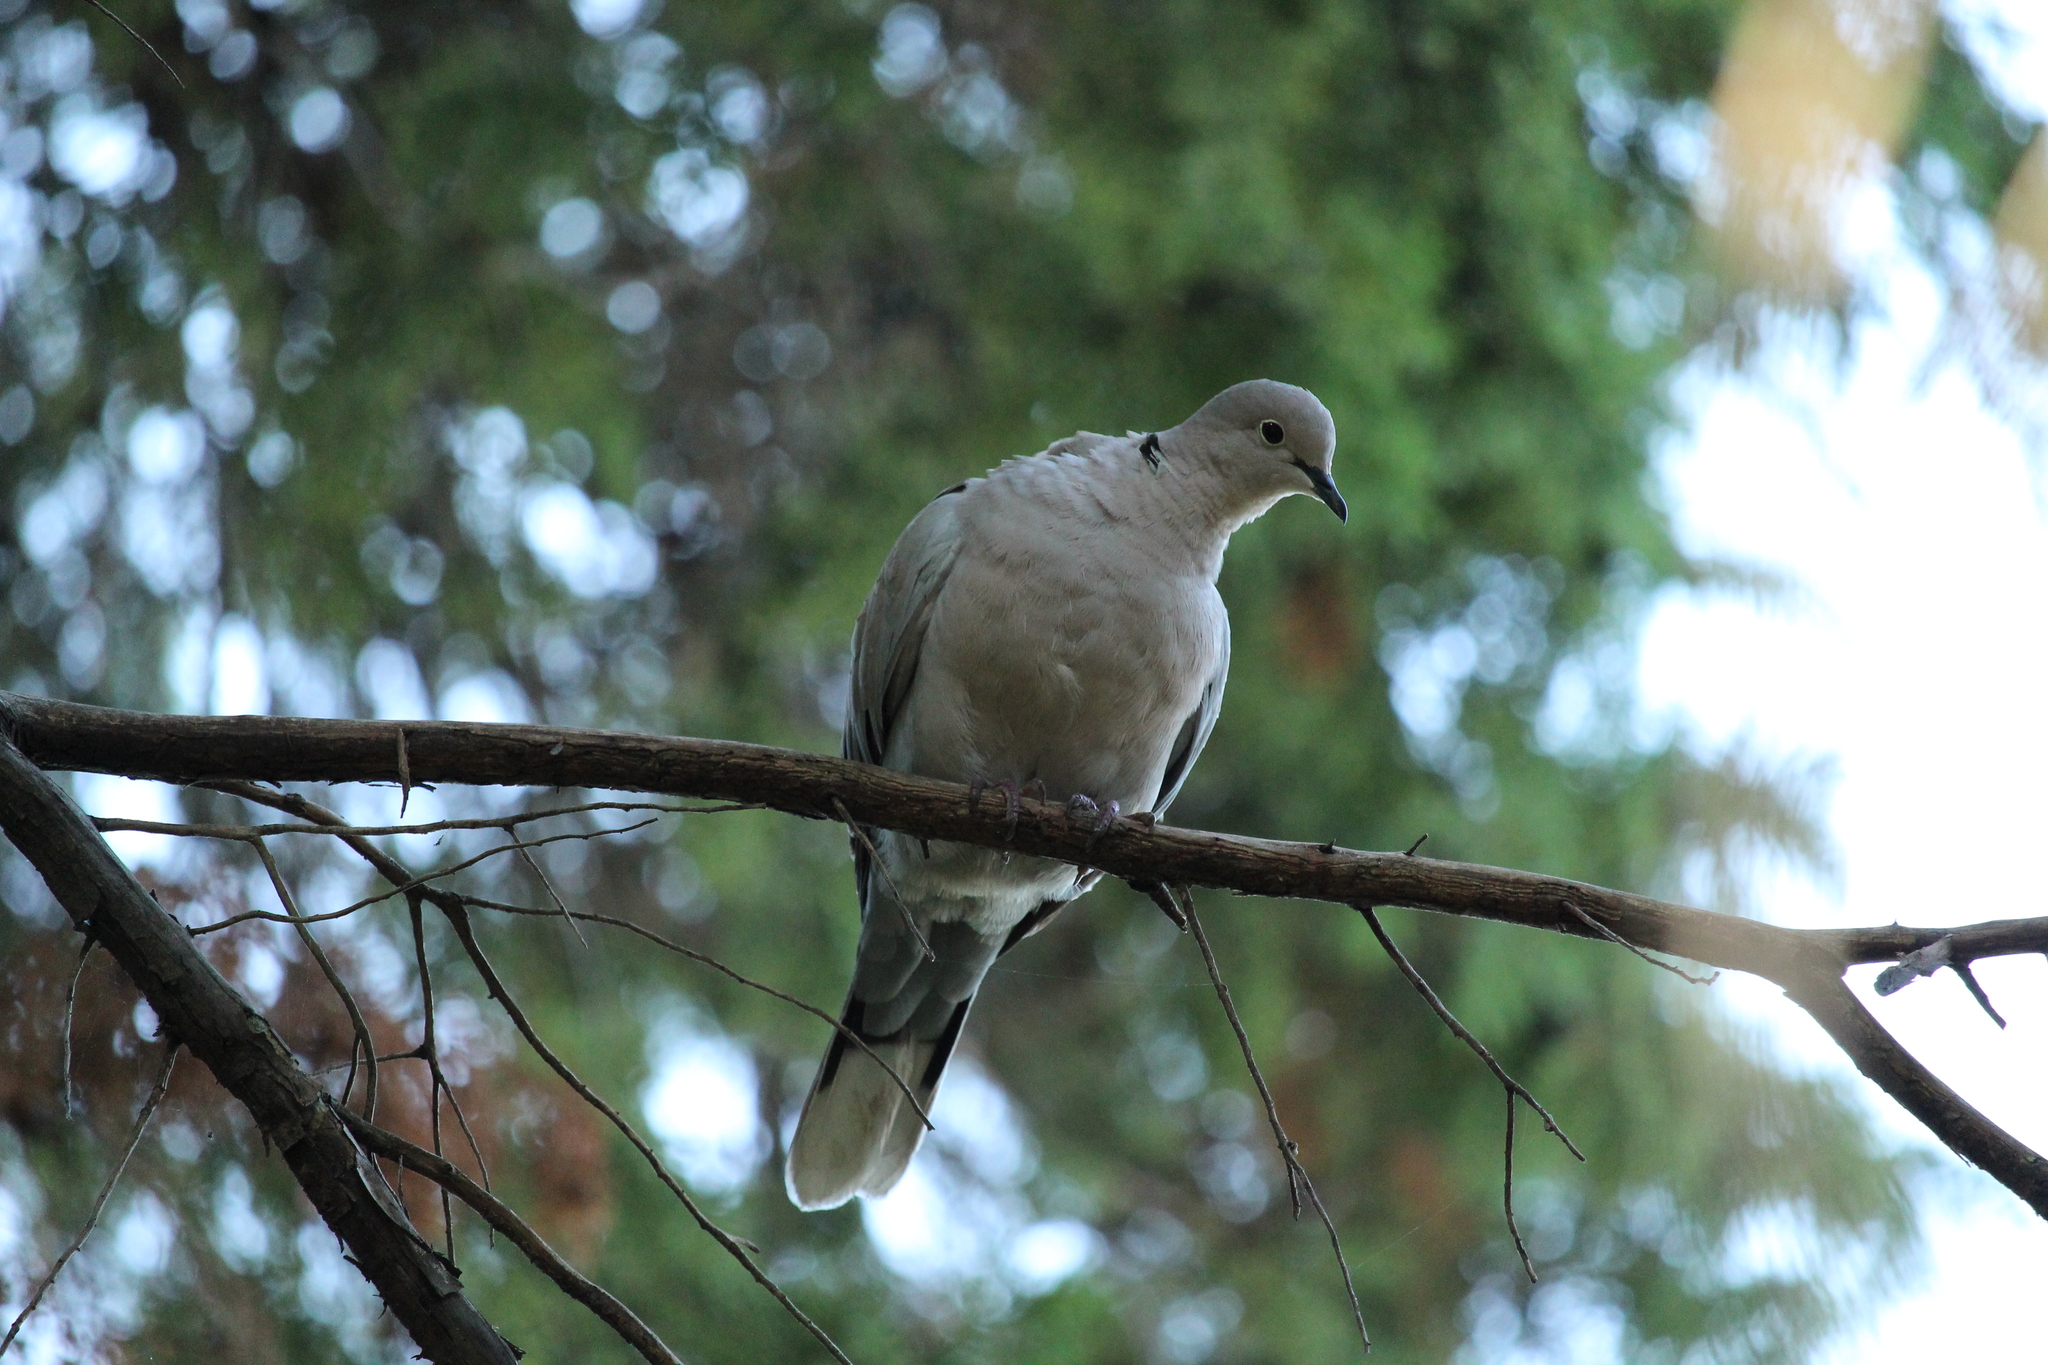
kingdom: Animalia
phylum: Chordata
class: Aves
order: Columbiformes
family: Columbidae
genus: Streptopelia
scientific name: Streptopelia decaocto
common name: Eurasian collared dove
